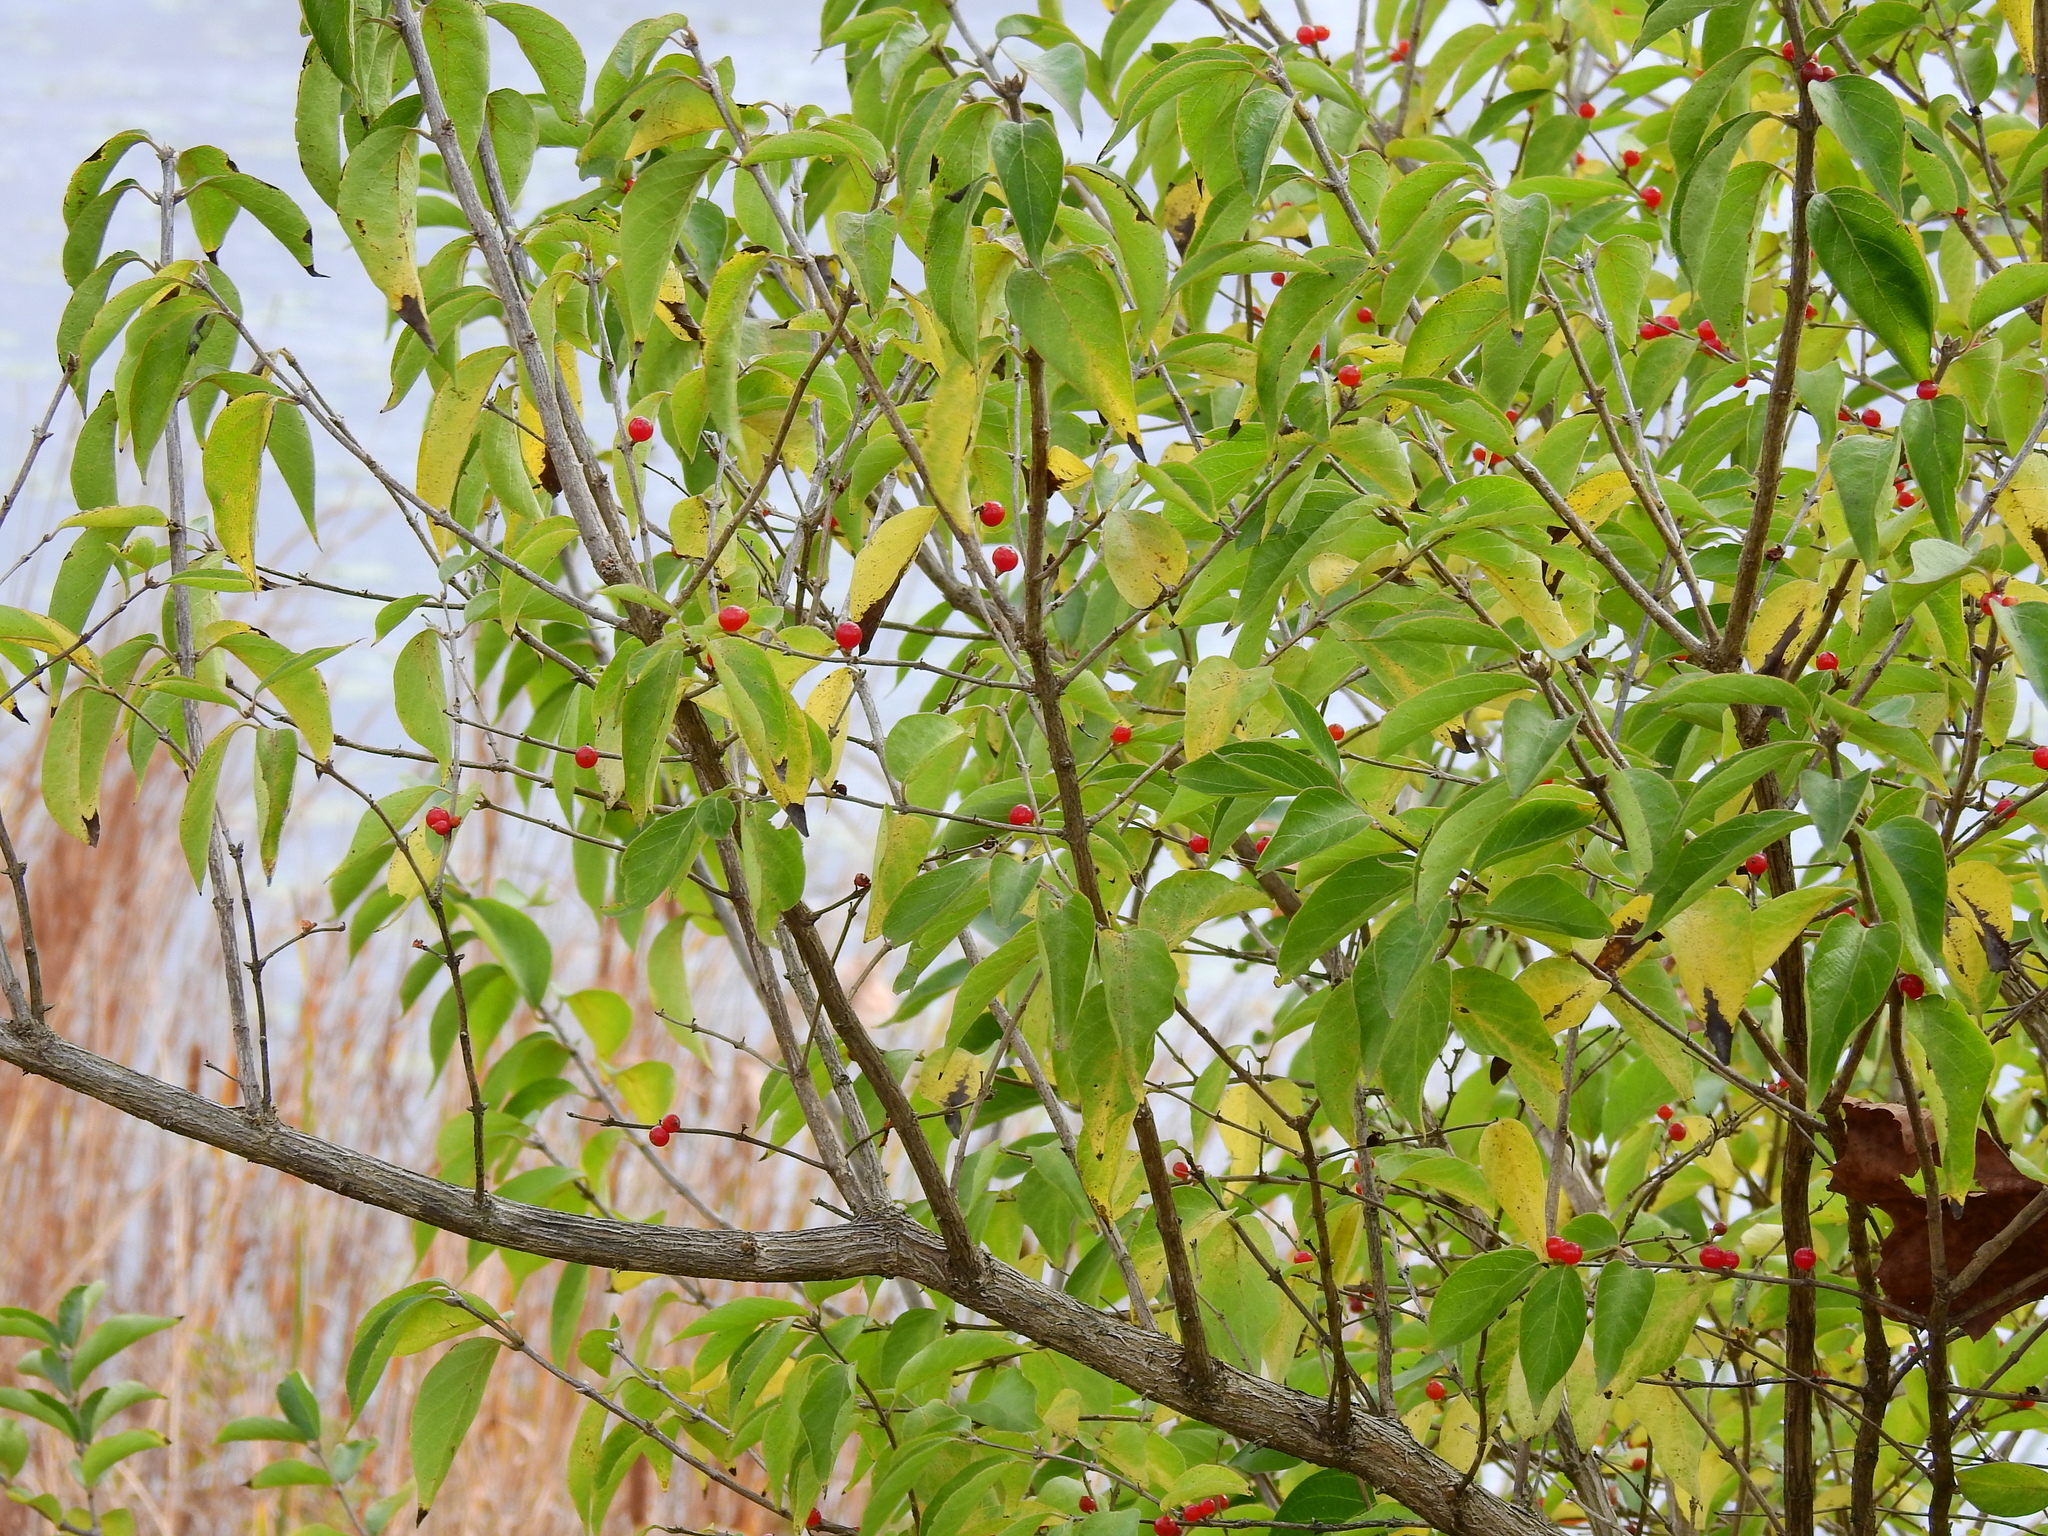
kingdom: Plantae
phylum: Tracheophyta
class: Magnoliopsida
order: Dipsacales
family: Caprifoliaceae
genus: Lonicera
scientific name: Lonicera maackii
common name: Amur honeysuckle
